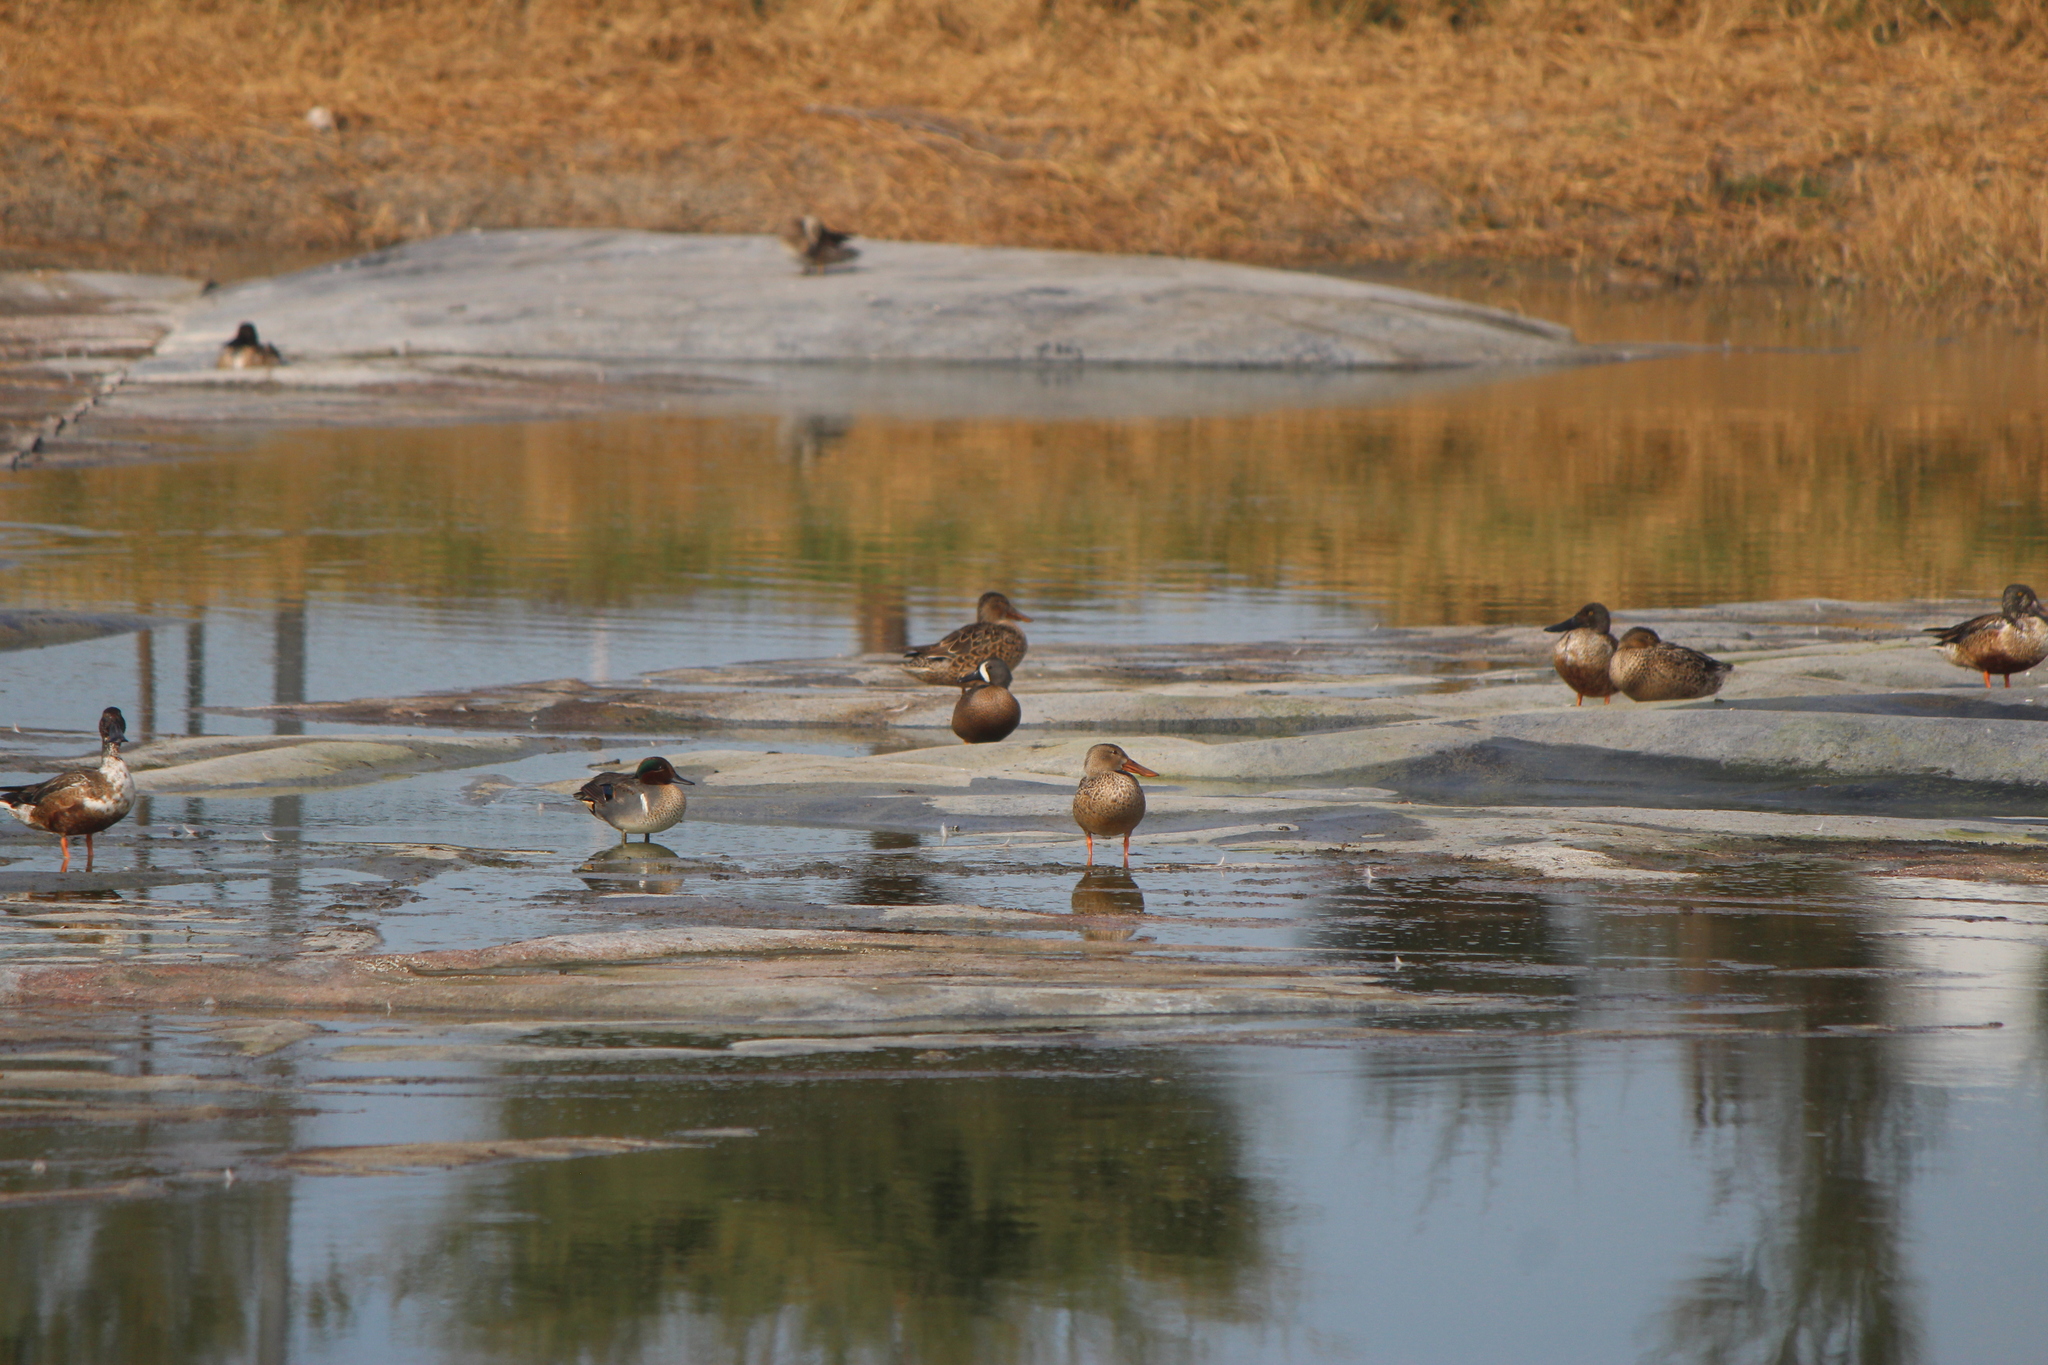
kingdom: Animalia
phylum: Chordata
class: Aves
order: Anseriformes
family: Anatidae
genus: Spatula
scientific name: Spatula discors
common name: Blue-winged teal
